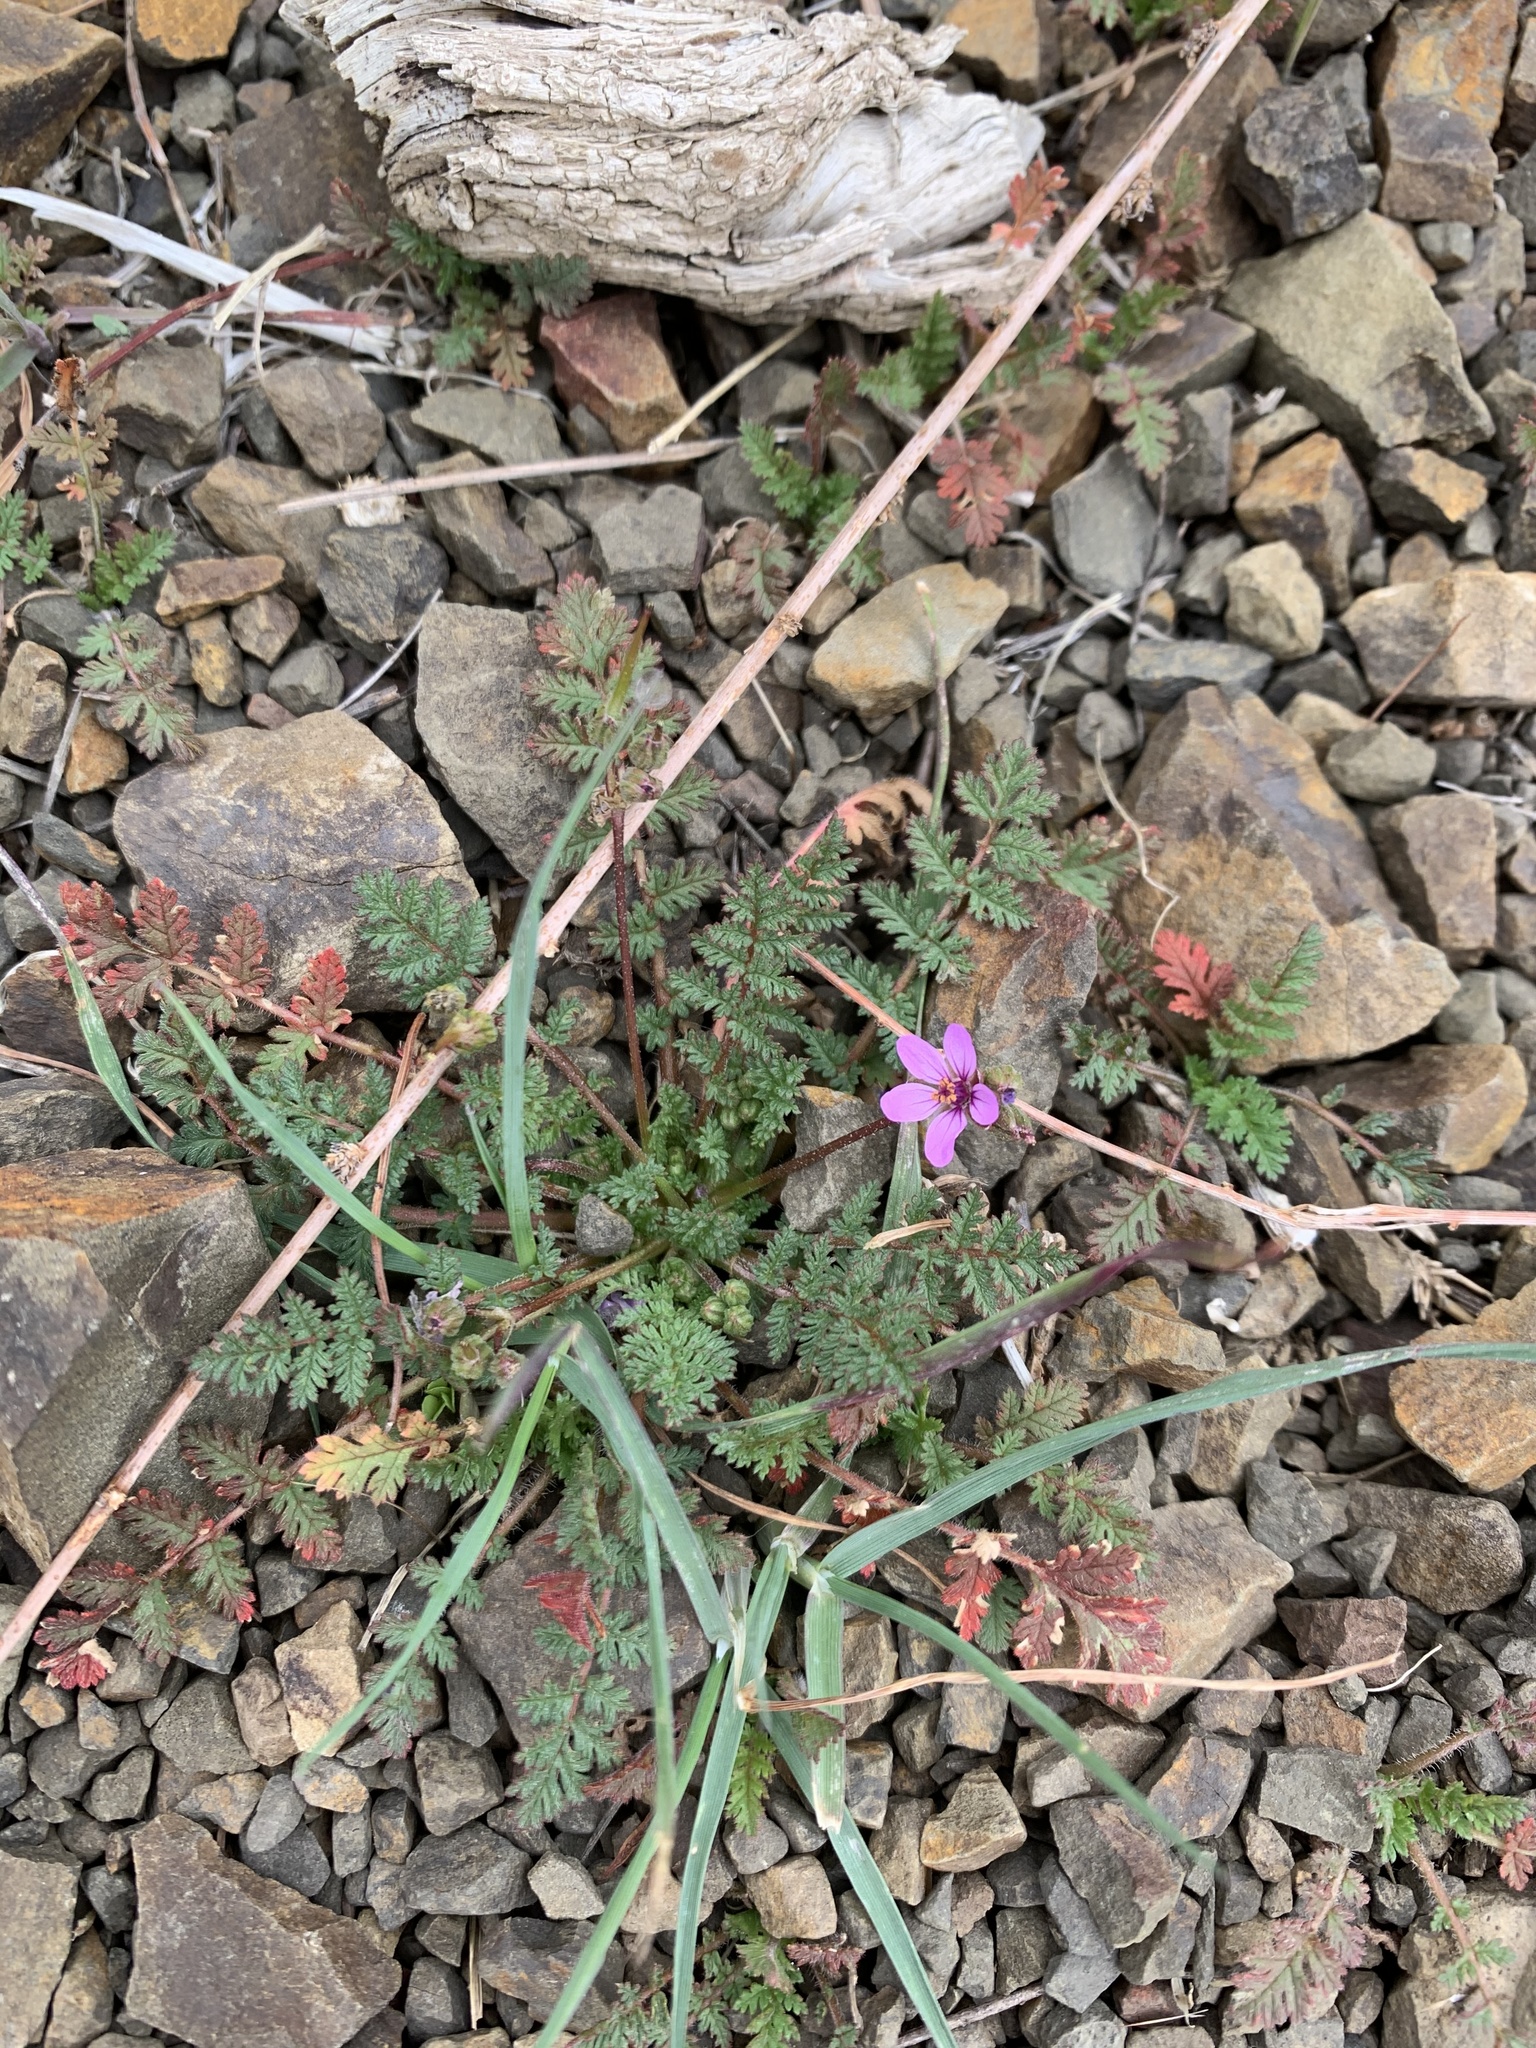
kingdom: Plantae
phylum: Tracheophyta
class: Magnoliopsida
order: Geraniales
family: Geraniaceae
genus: Erodium
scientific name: Erodium cicutarium
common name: Common stork's-bill
